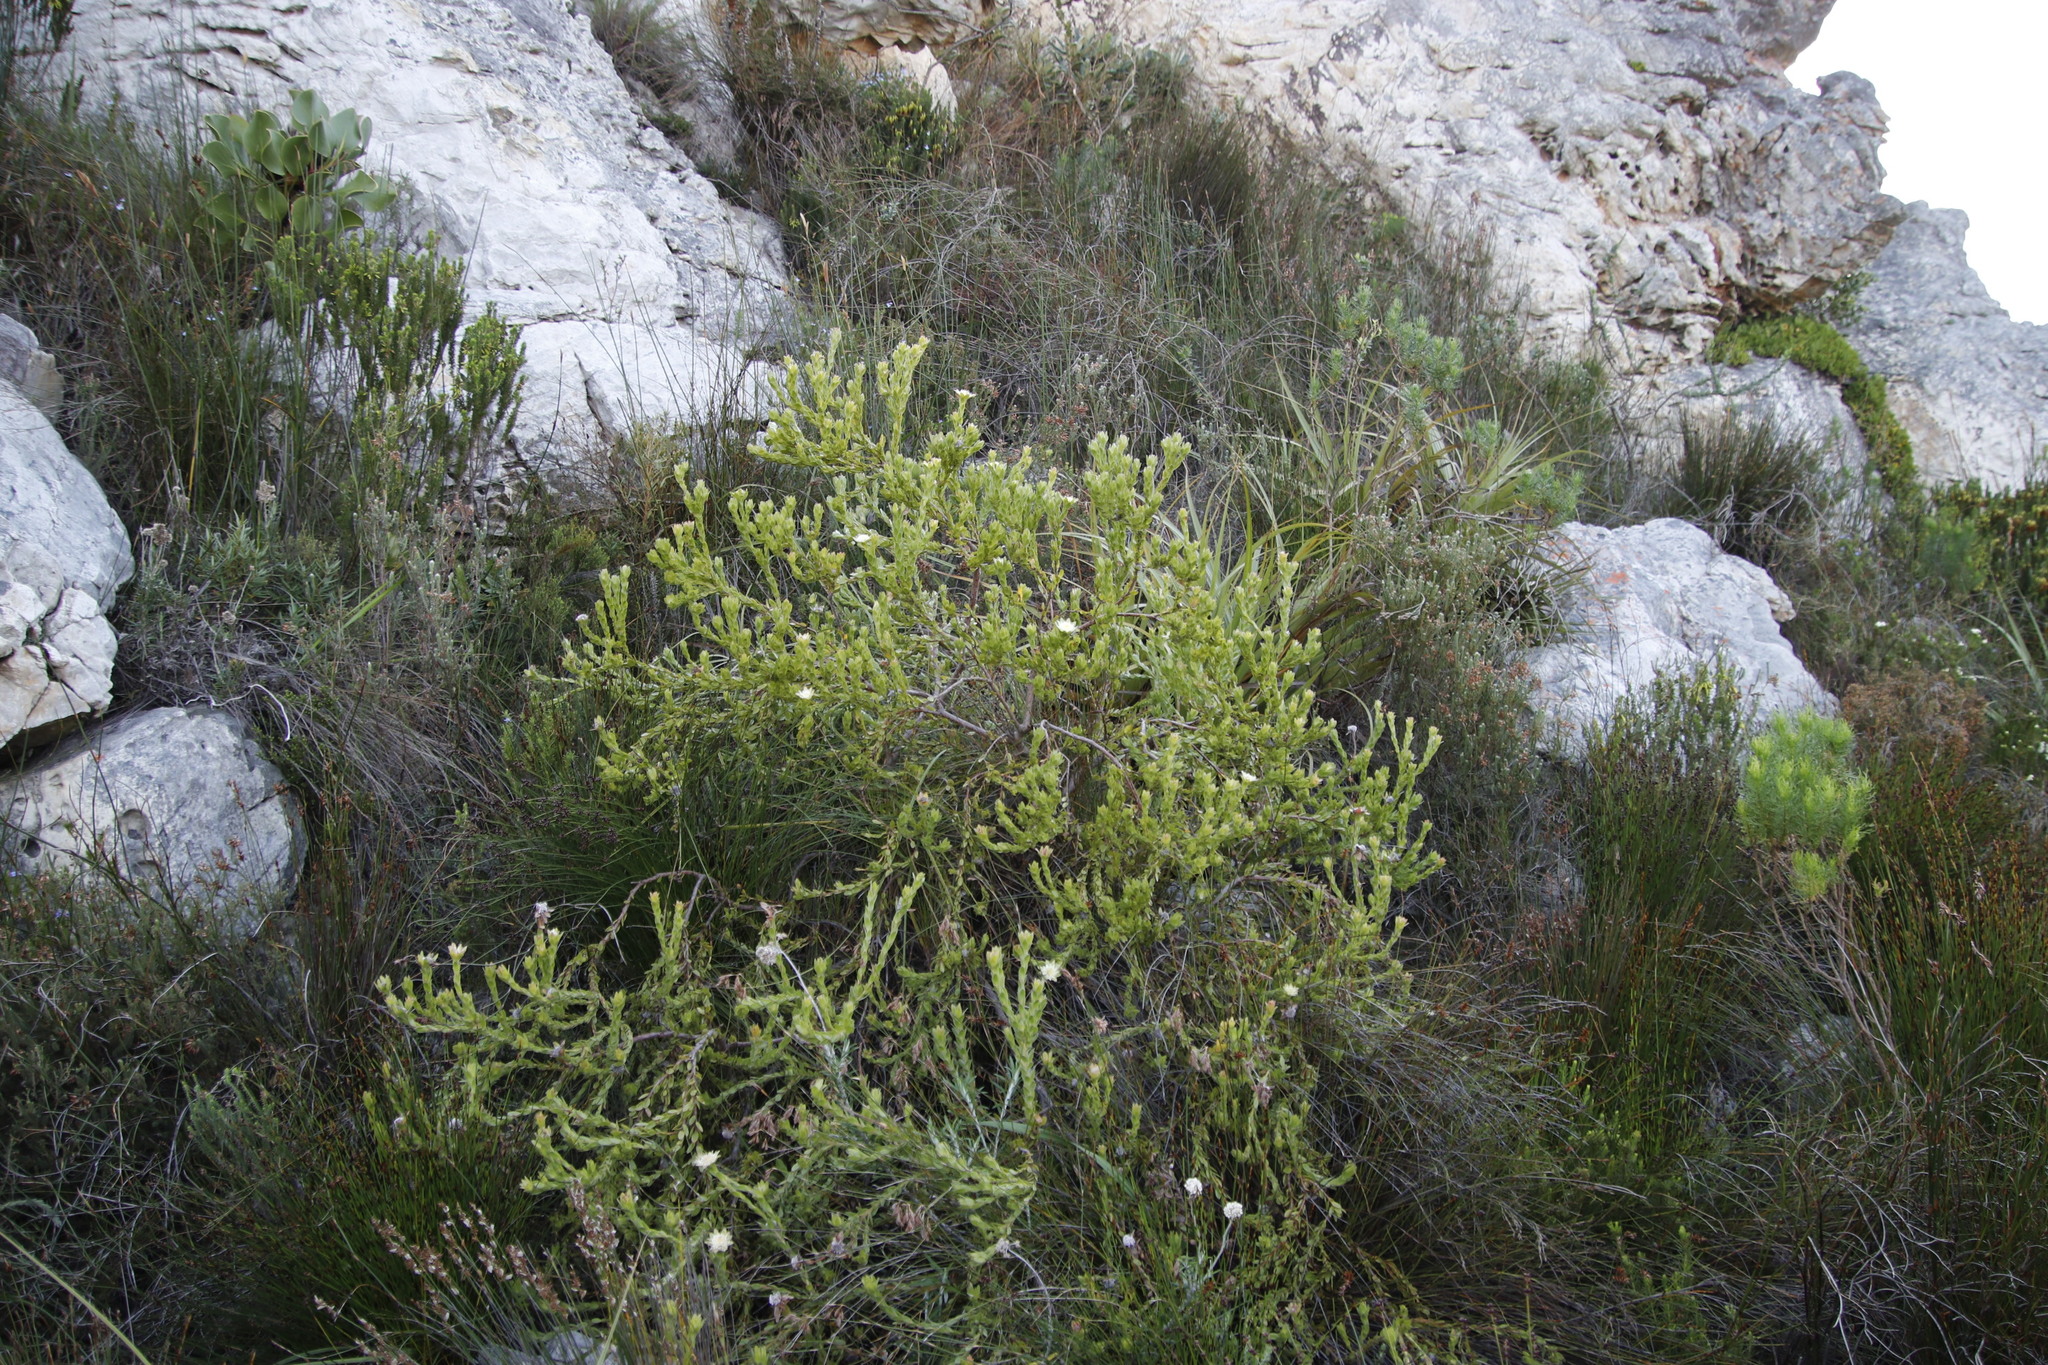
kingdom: Plantae
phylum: Tracheophyta
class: Magnoliopsida
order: Proteales
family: Proteaceae
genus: Diastella
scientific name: Diastella thymelaeoides
